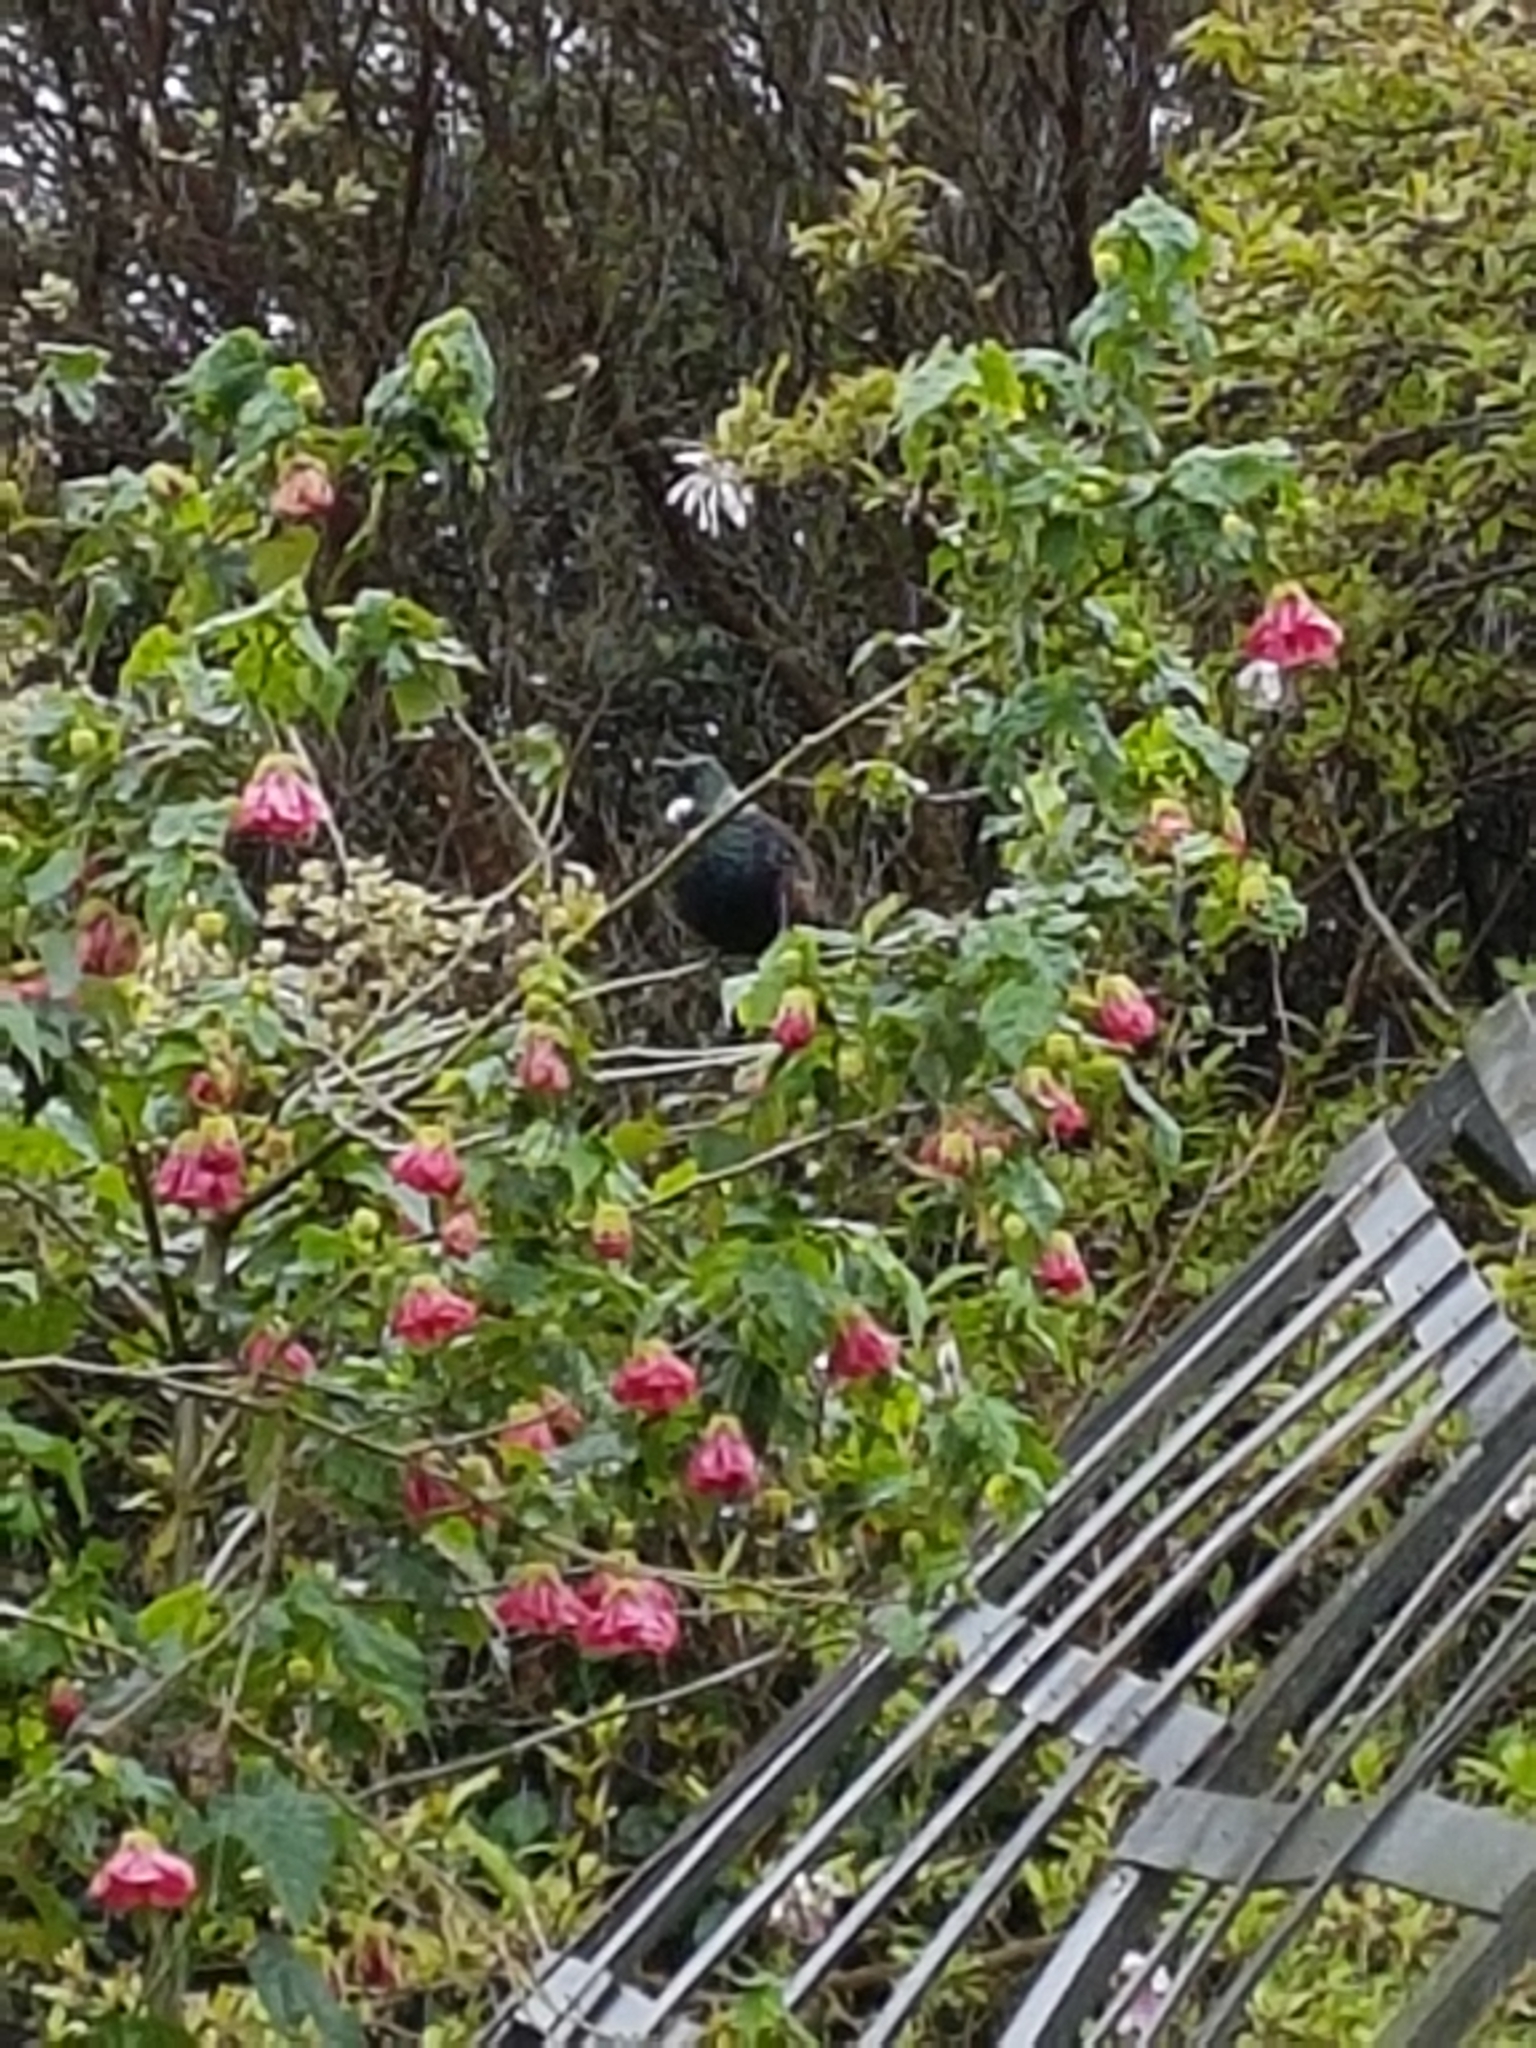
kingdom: Animalia
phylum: Chordata
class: Aves
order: Passeriformes
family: Meliphagidae
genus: Prosthemadera
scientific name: Prosthemadera novaeseelandiae
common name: Tui
